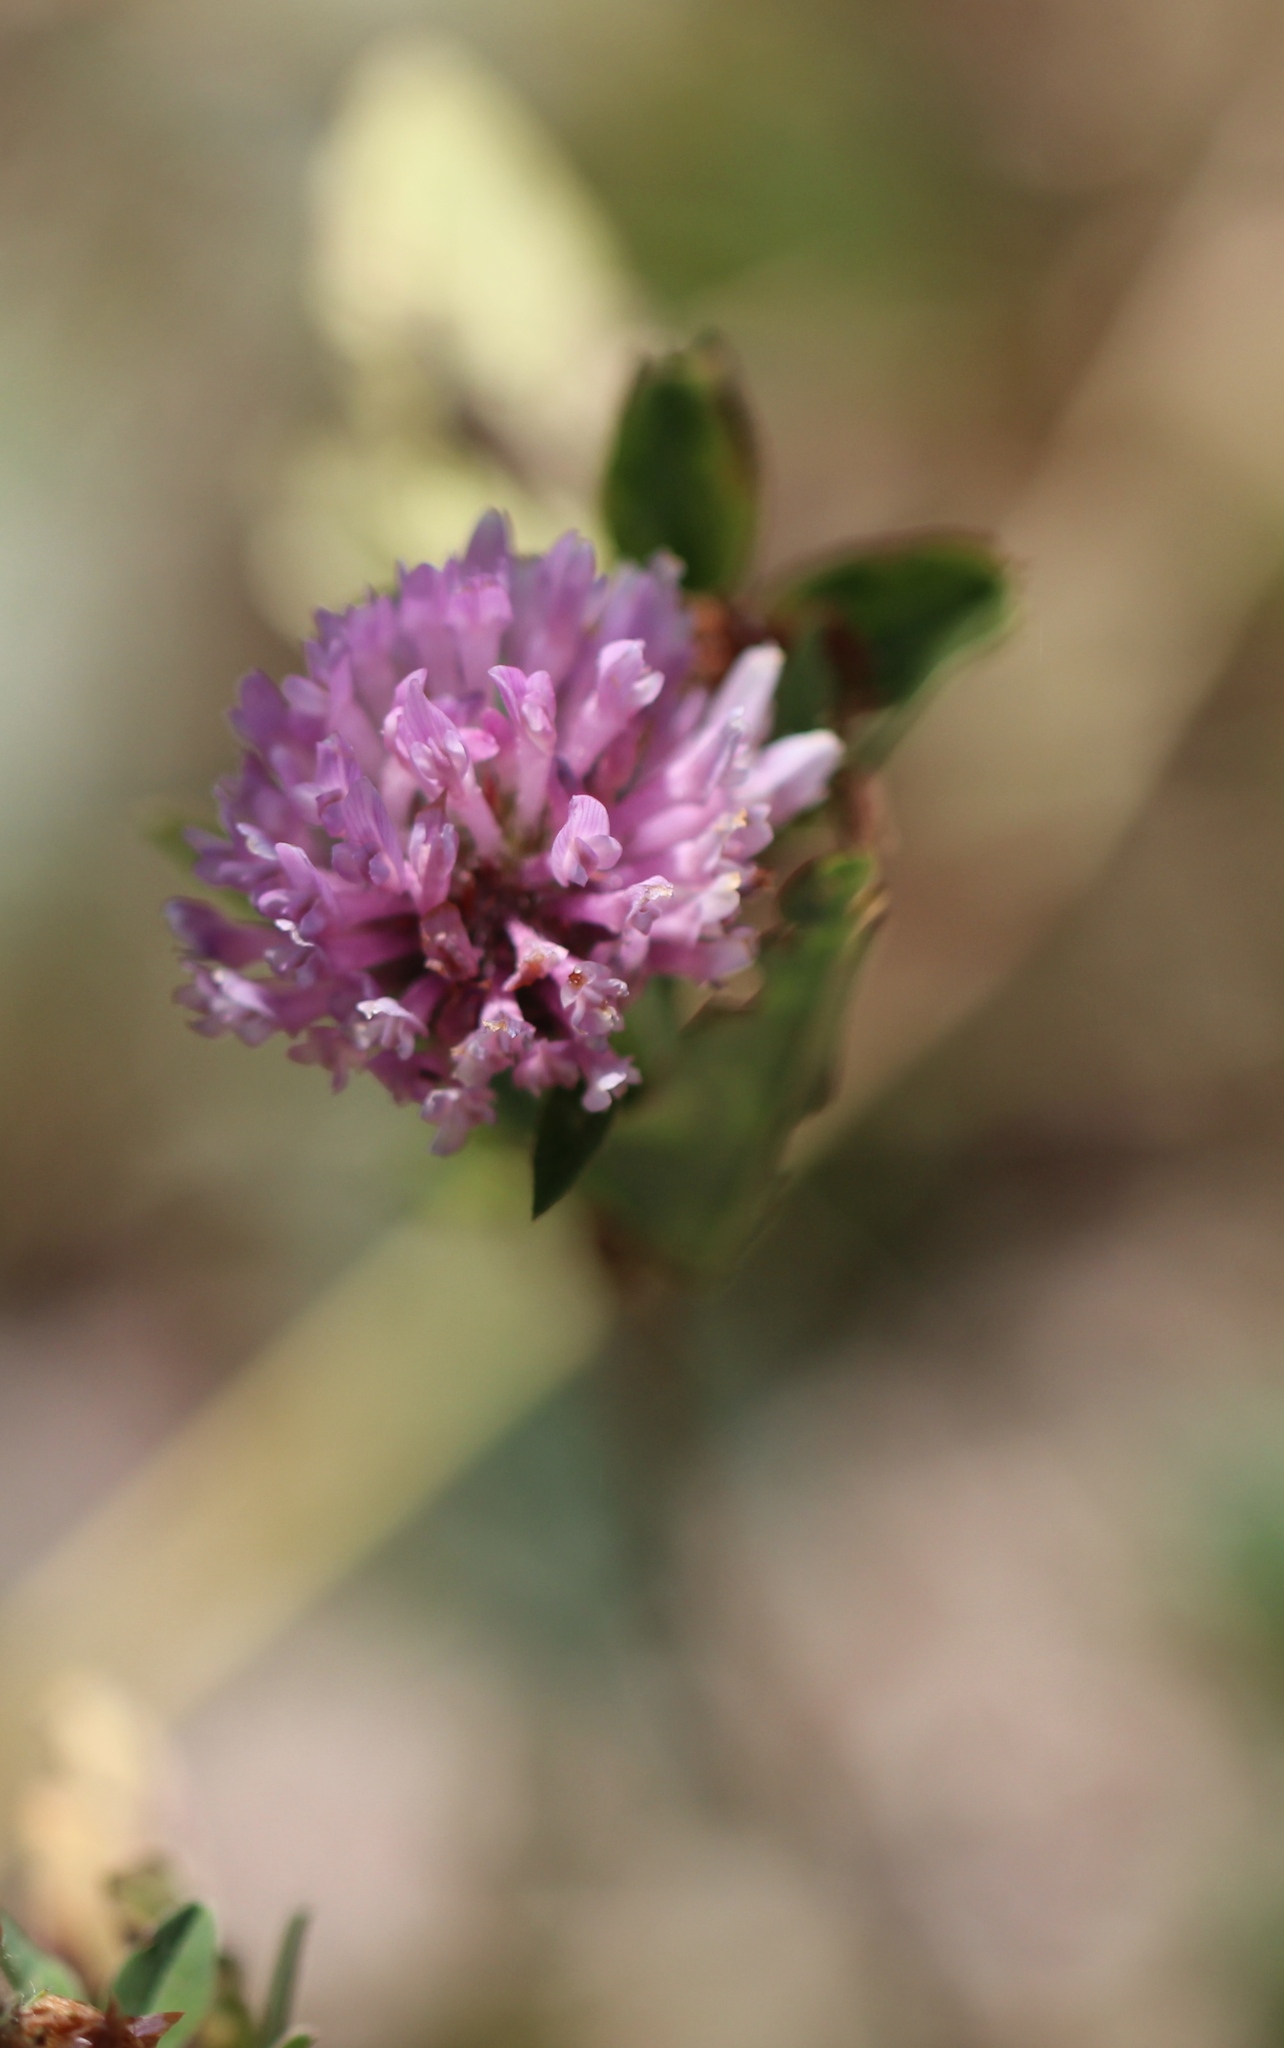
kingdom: Plantae
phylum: Tracheophyta
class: Magnoliopsida
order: Fabales
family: Fabaceae
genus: Trifolium
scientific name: Trifolium pratense
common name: Red clover
